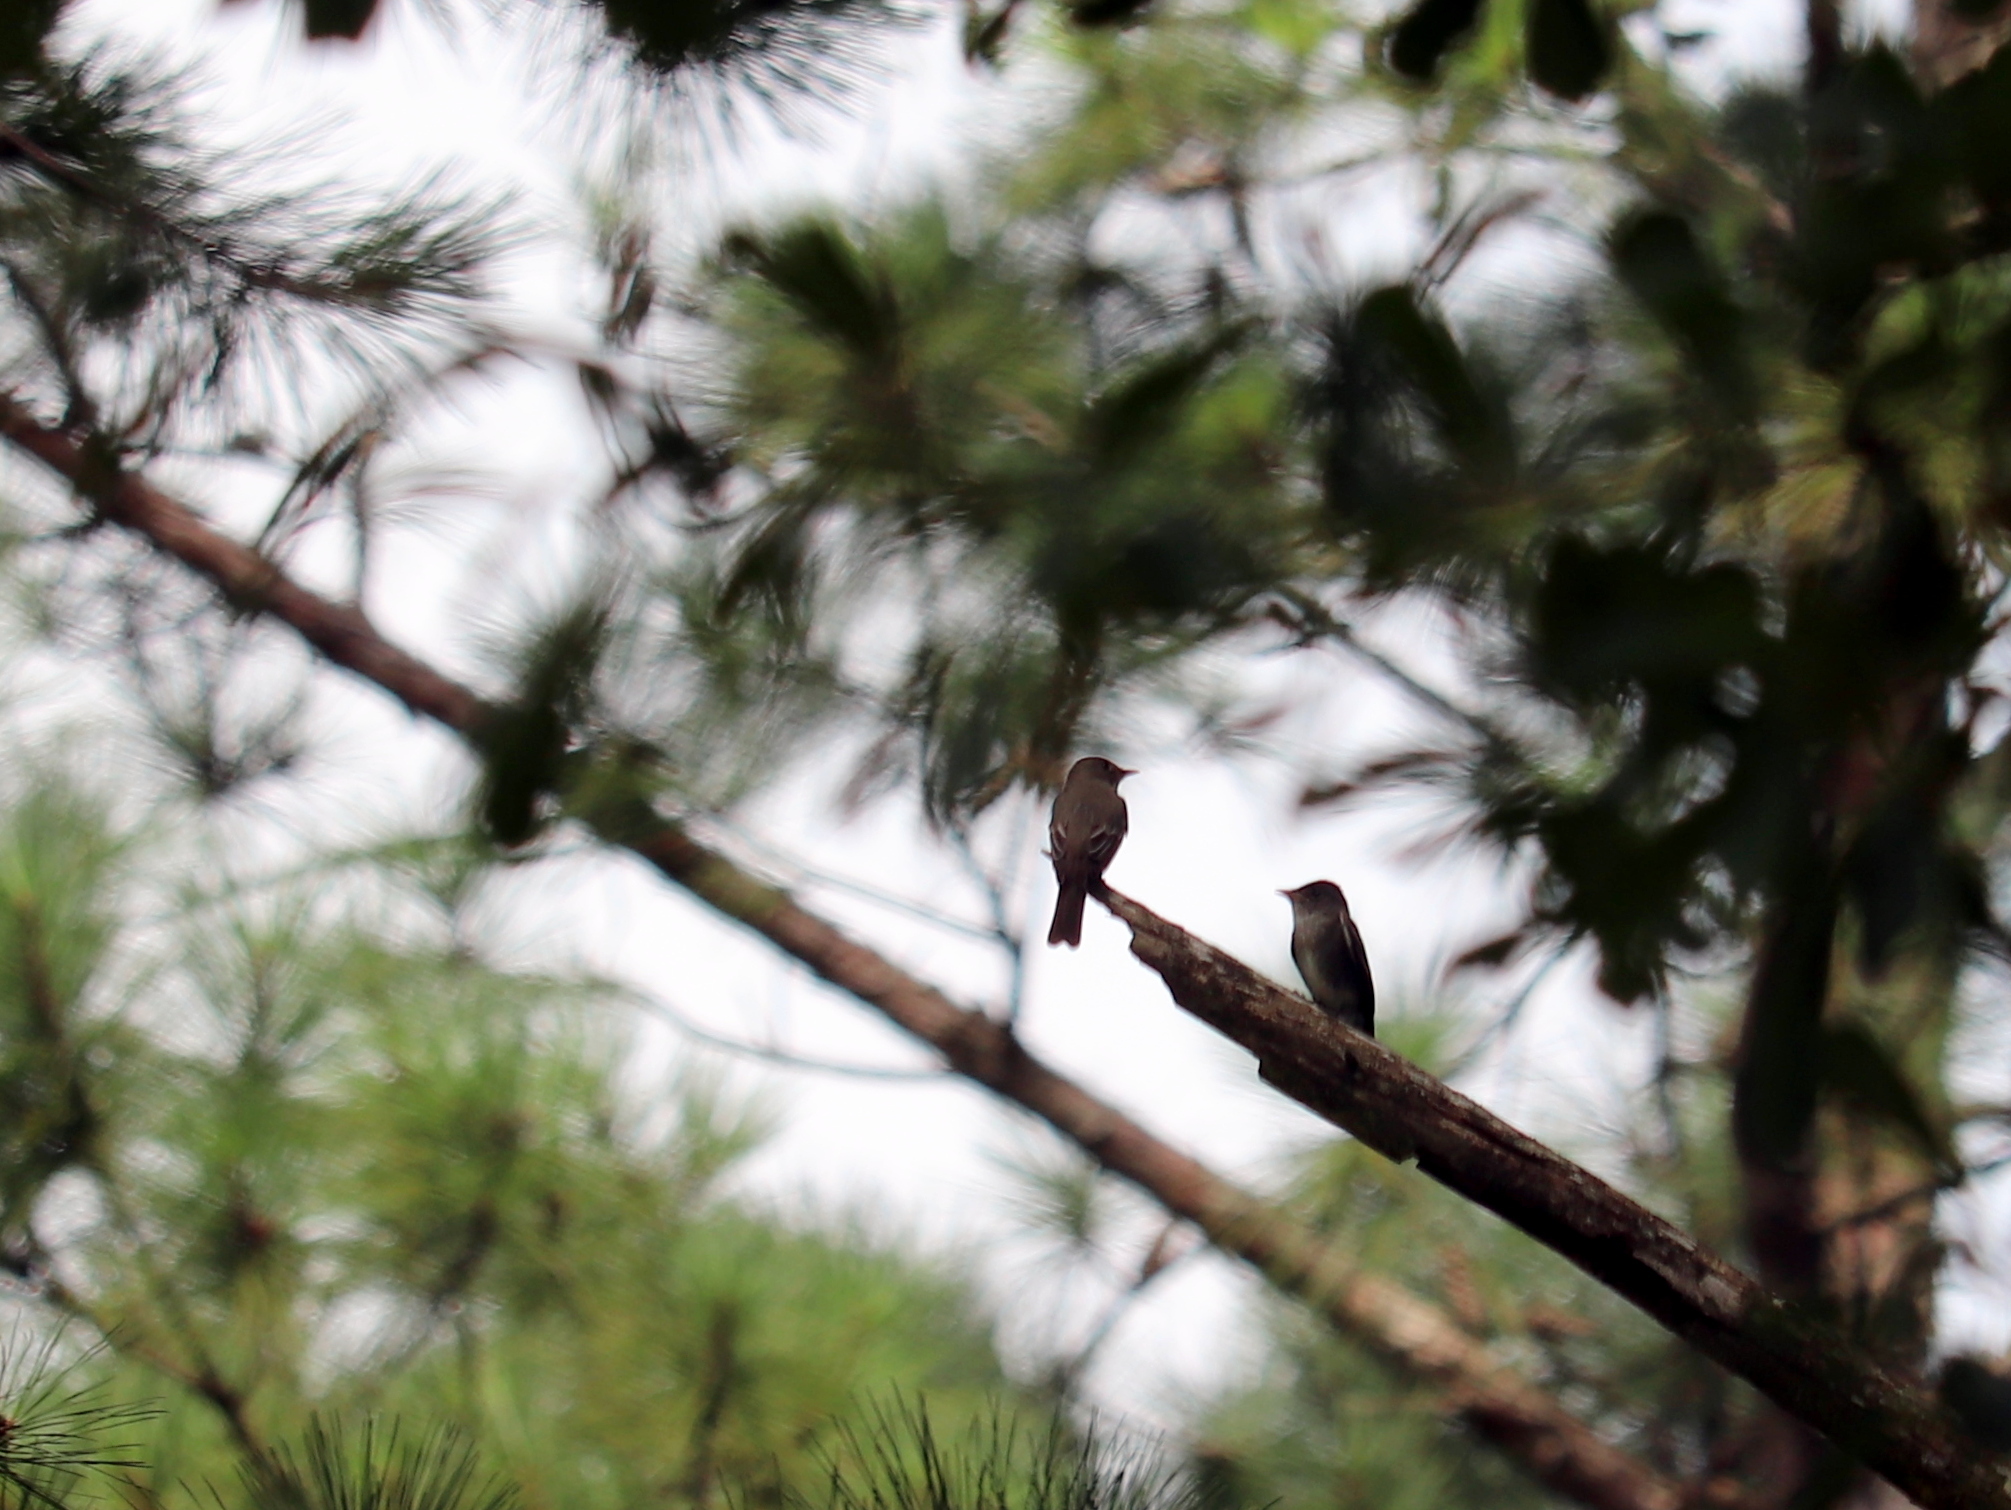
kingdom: Animalia
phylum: Chordata
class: Aves
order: Passeriformes
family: Tyrannidae
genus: Contopus
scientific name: Contopus virens
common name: Eastern wood-pewee
